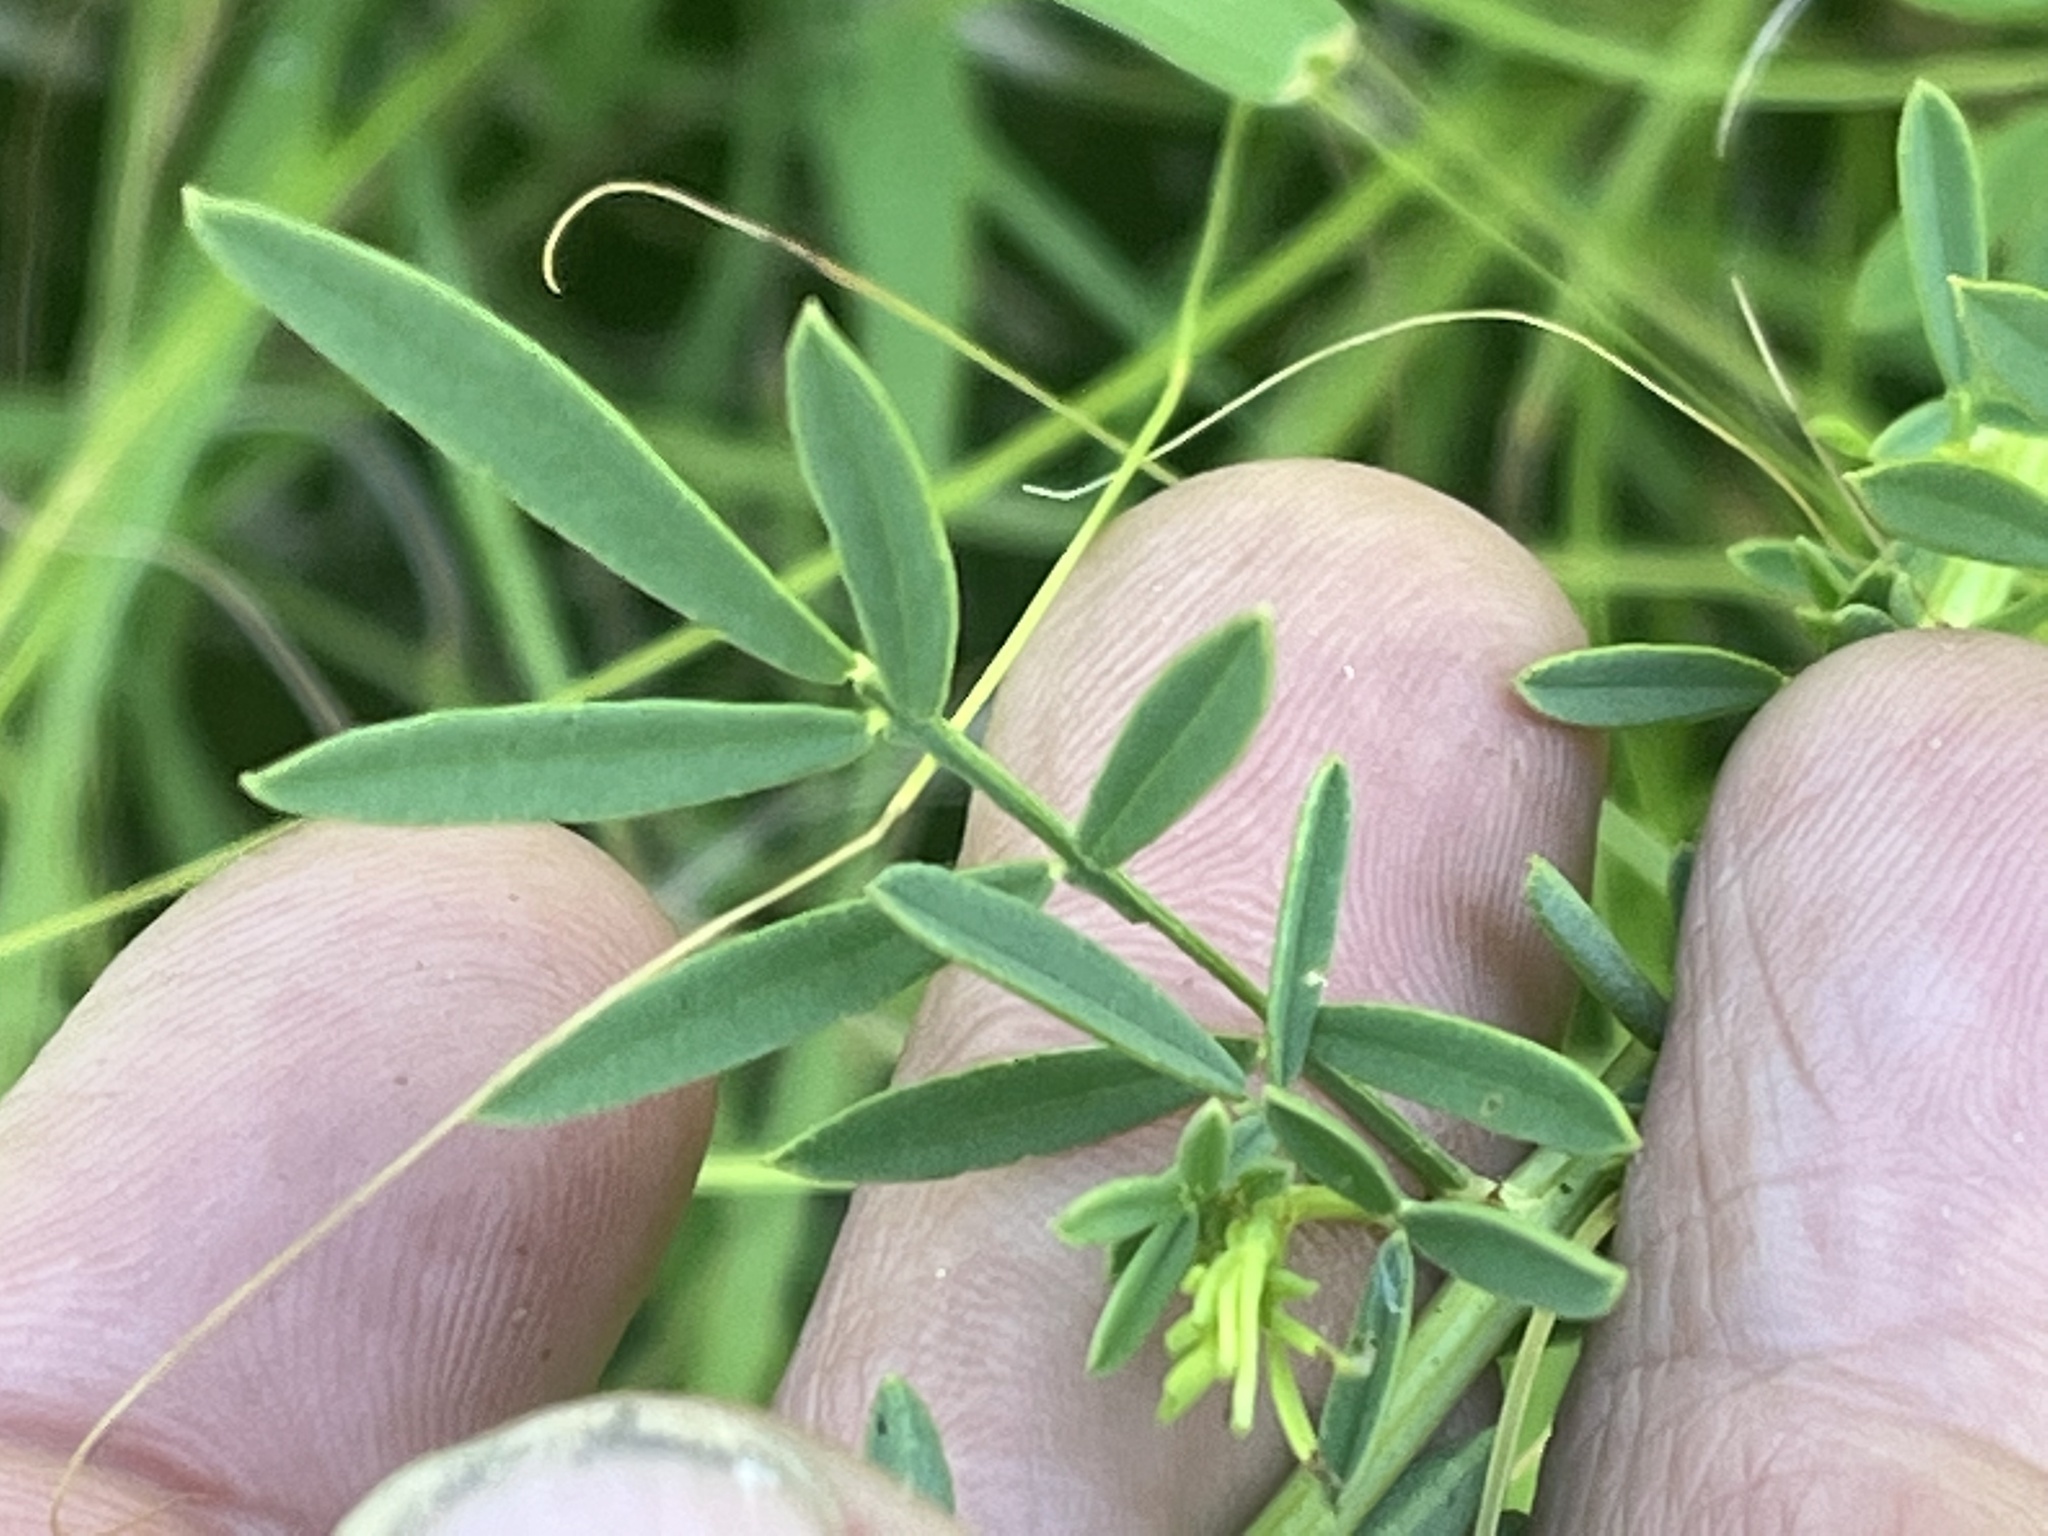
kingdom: Plantae
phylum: Tracheophyta
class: Magnoliopsida
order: Fabales
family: Fabaceae
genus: Dalea
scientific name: Dalea candida
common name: White prairie-clover
